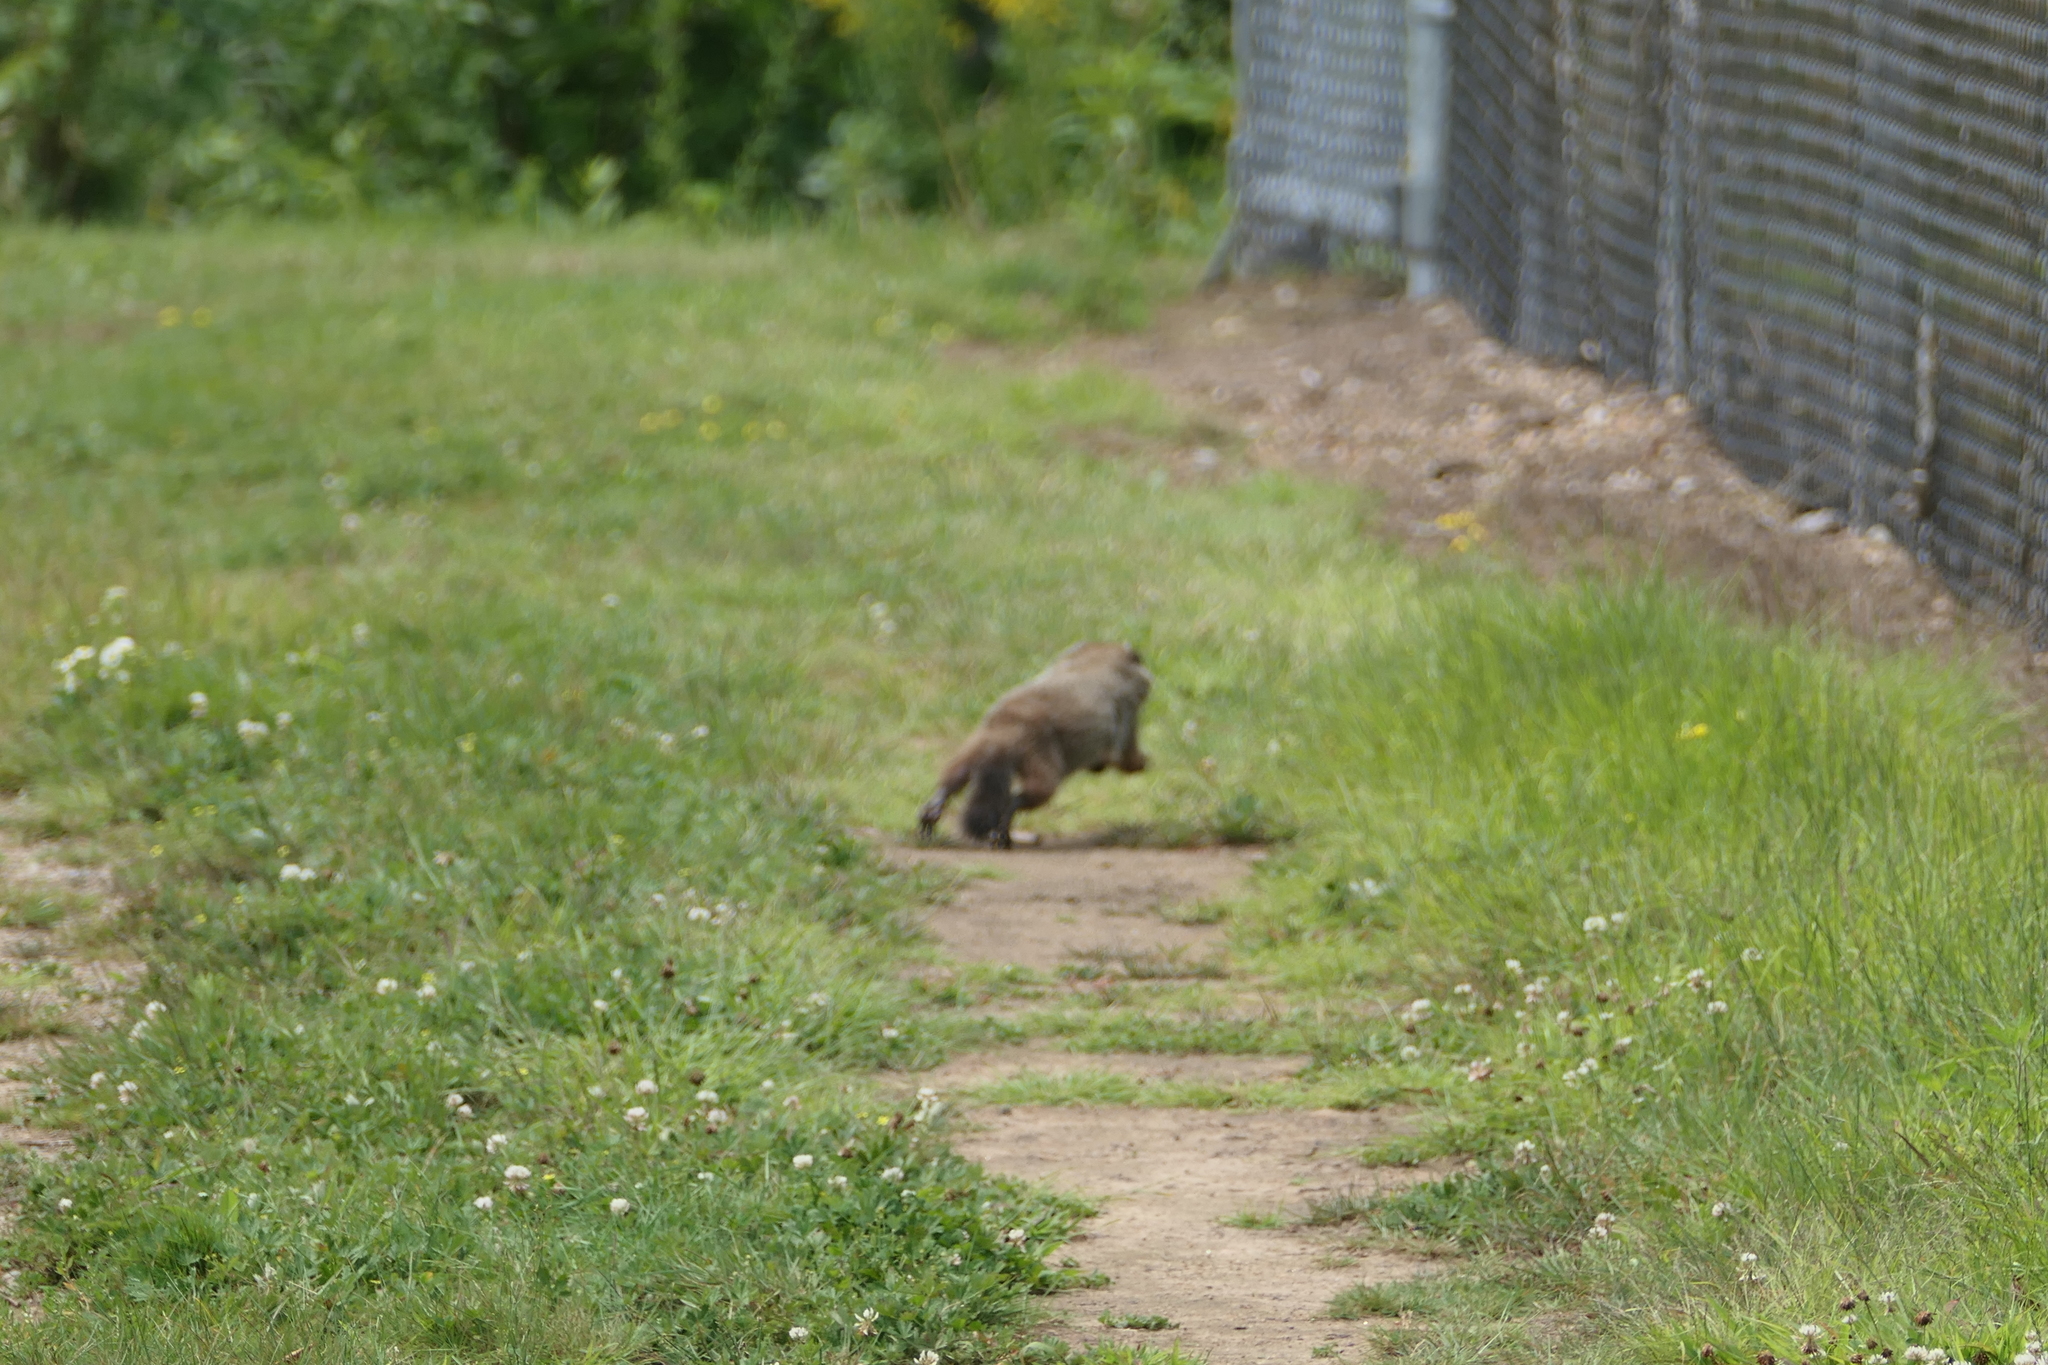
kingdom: Animalia
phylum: Chordata
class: Mammalia
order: Rodentia
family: Sciuridae
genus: Marmota
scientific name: Marmota monax
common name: Groundhog
